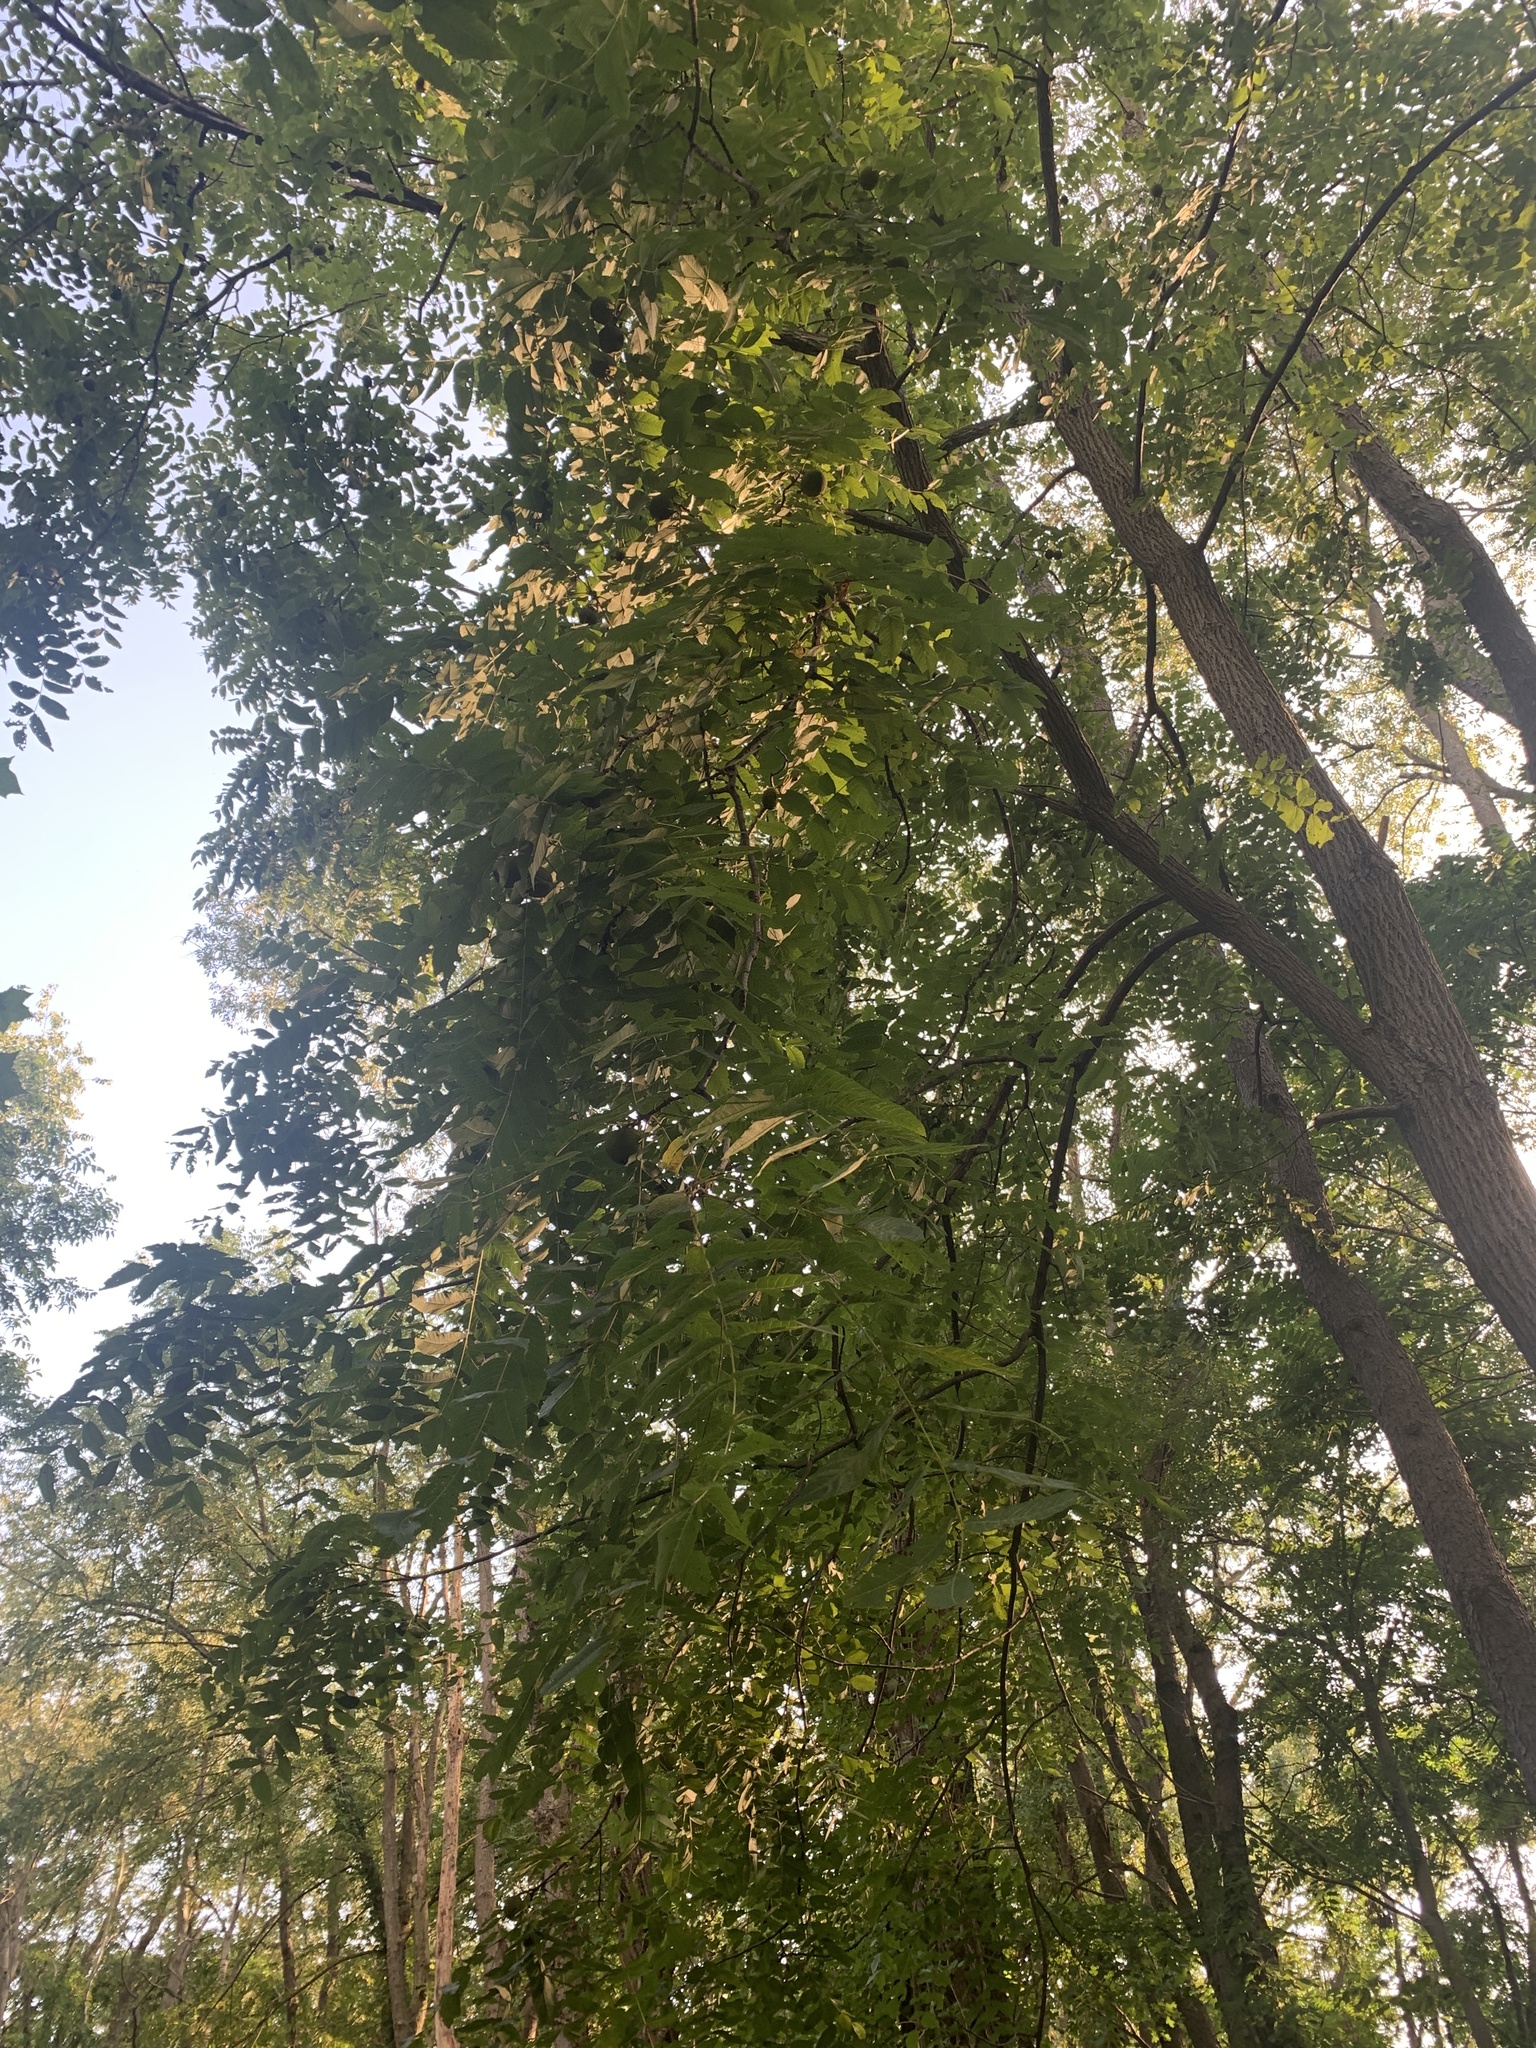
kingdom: Plantae
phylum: Tracheophyta
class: Magnoliopsida
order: Fagales
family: Juglandaceae
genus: Juglans
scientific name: Juglans nigra
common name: Black walnut
